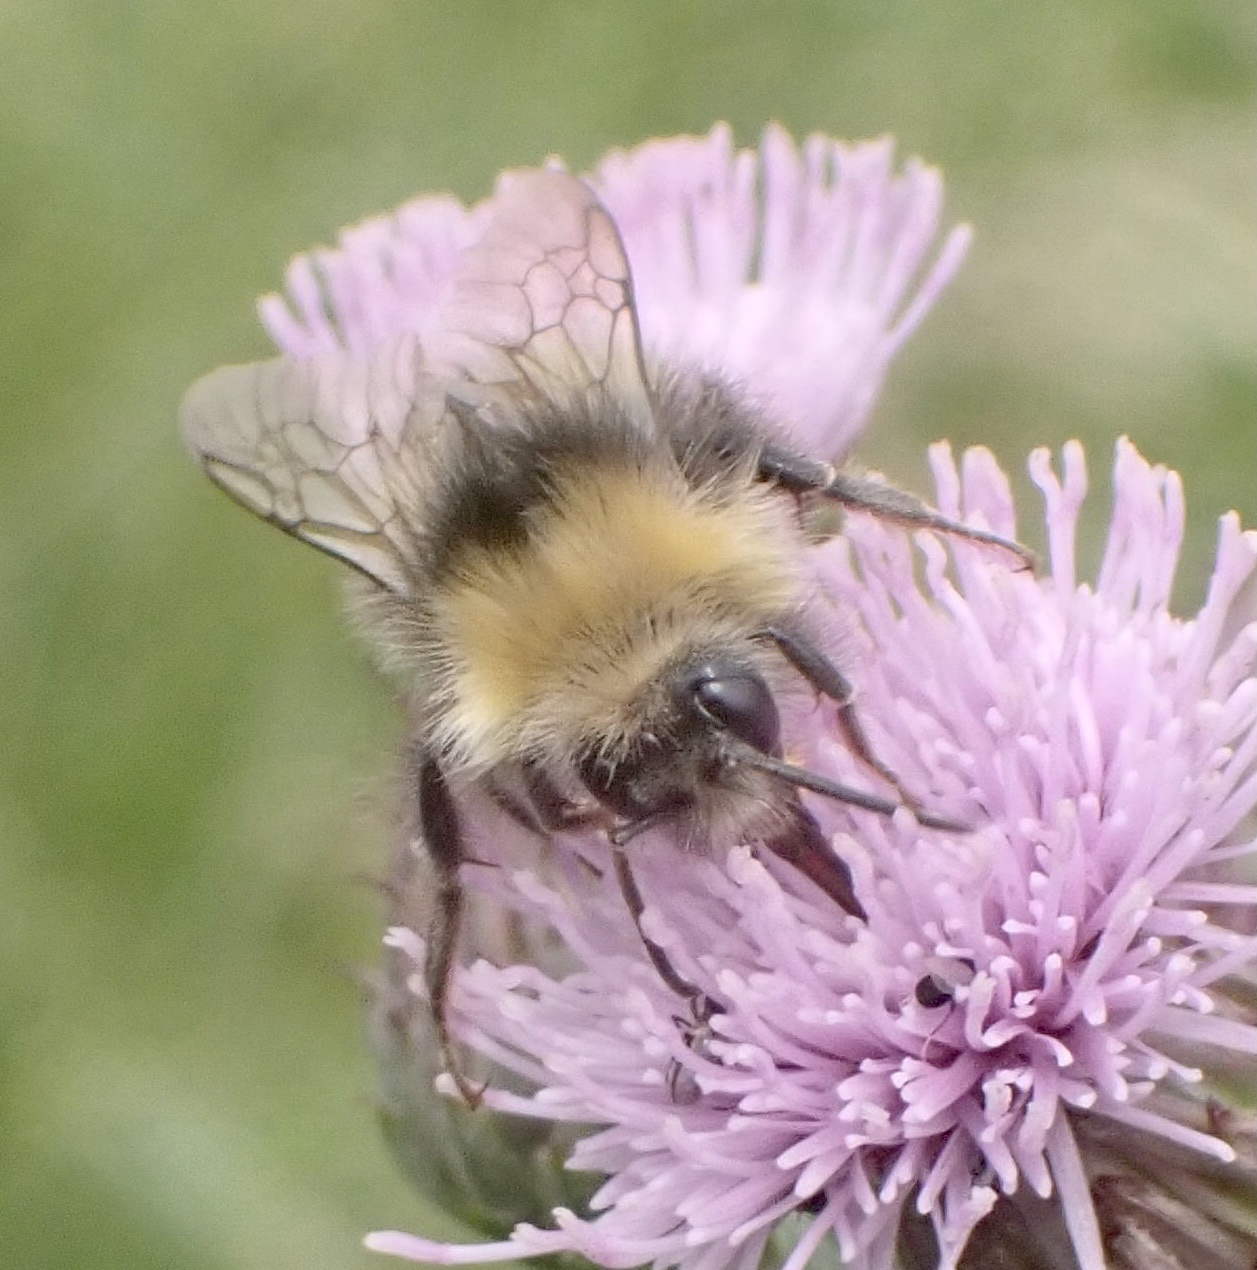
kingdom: Animalia
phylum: Arthropoda
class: Insecta
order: Hymenoptera
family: Apidae
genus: Bombus
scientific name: Bombus pratorum
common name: Early humble-bee
